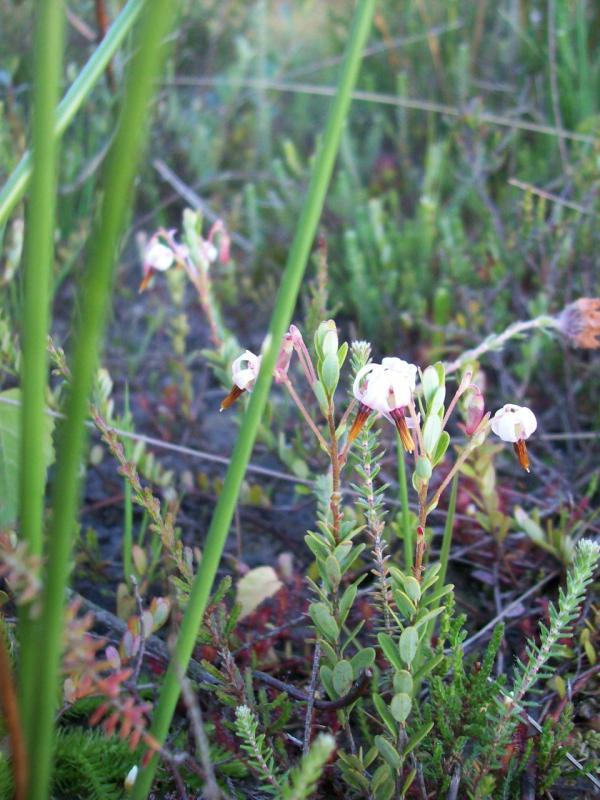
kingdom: Plantae
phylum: Tracheophyta
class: Magnoliopsida
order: Ericales
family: Ericaceae
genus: Vaccinium
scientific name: Vaccinium macrocarpon
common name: American cranberry
